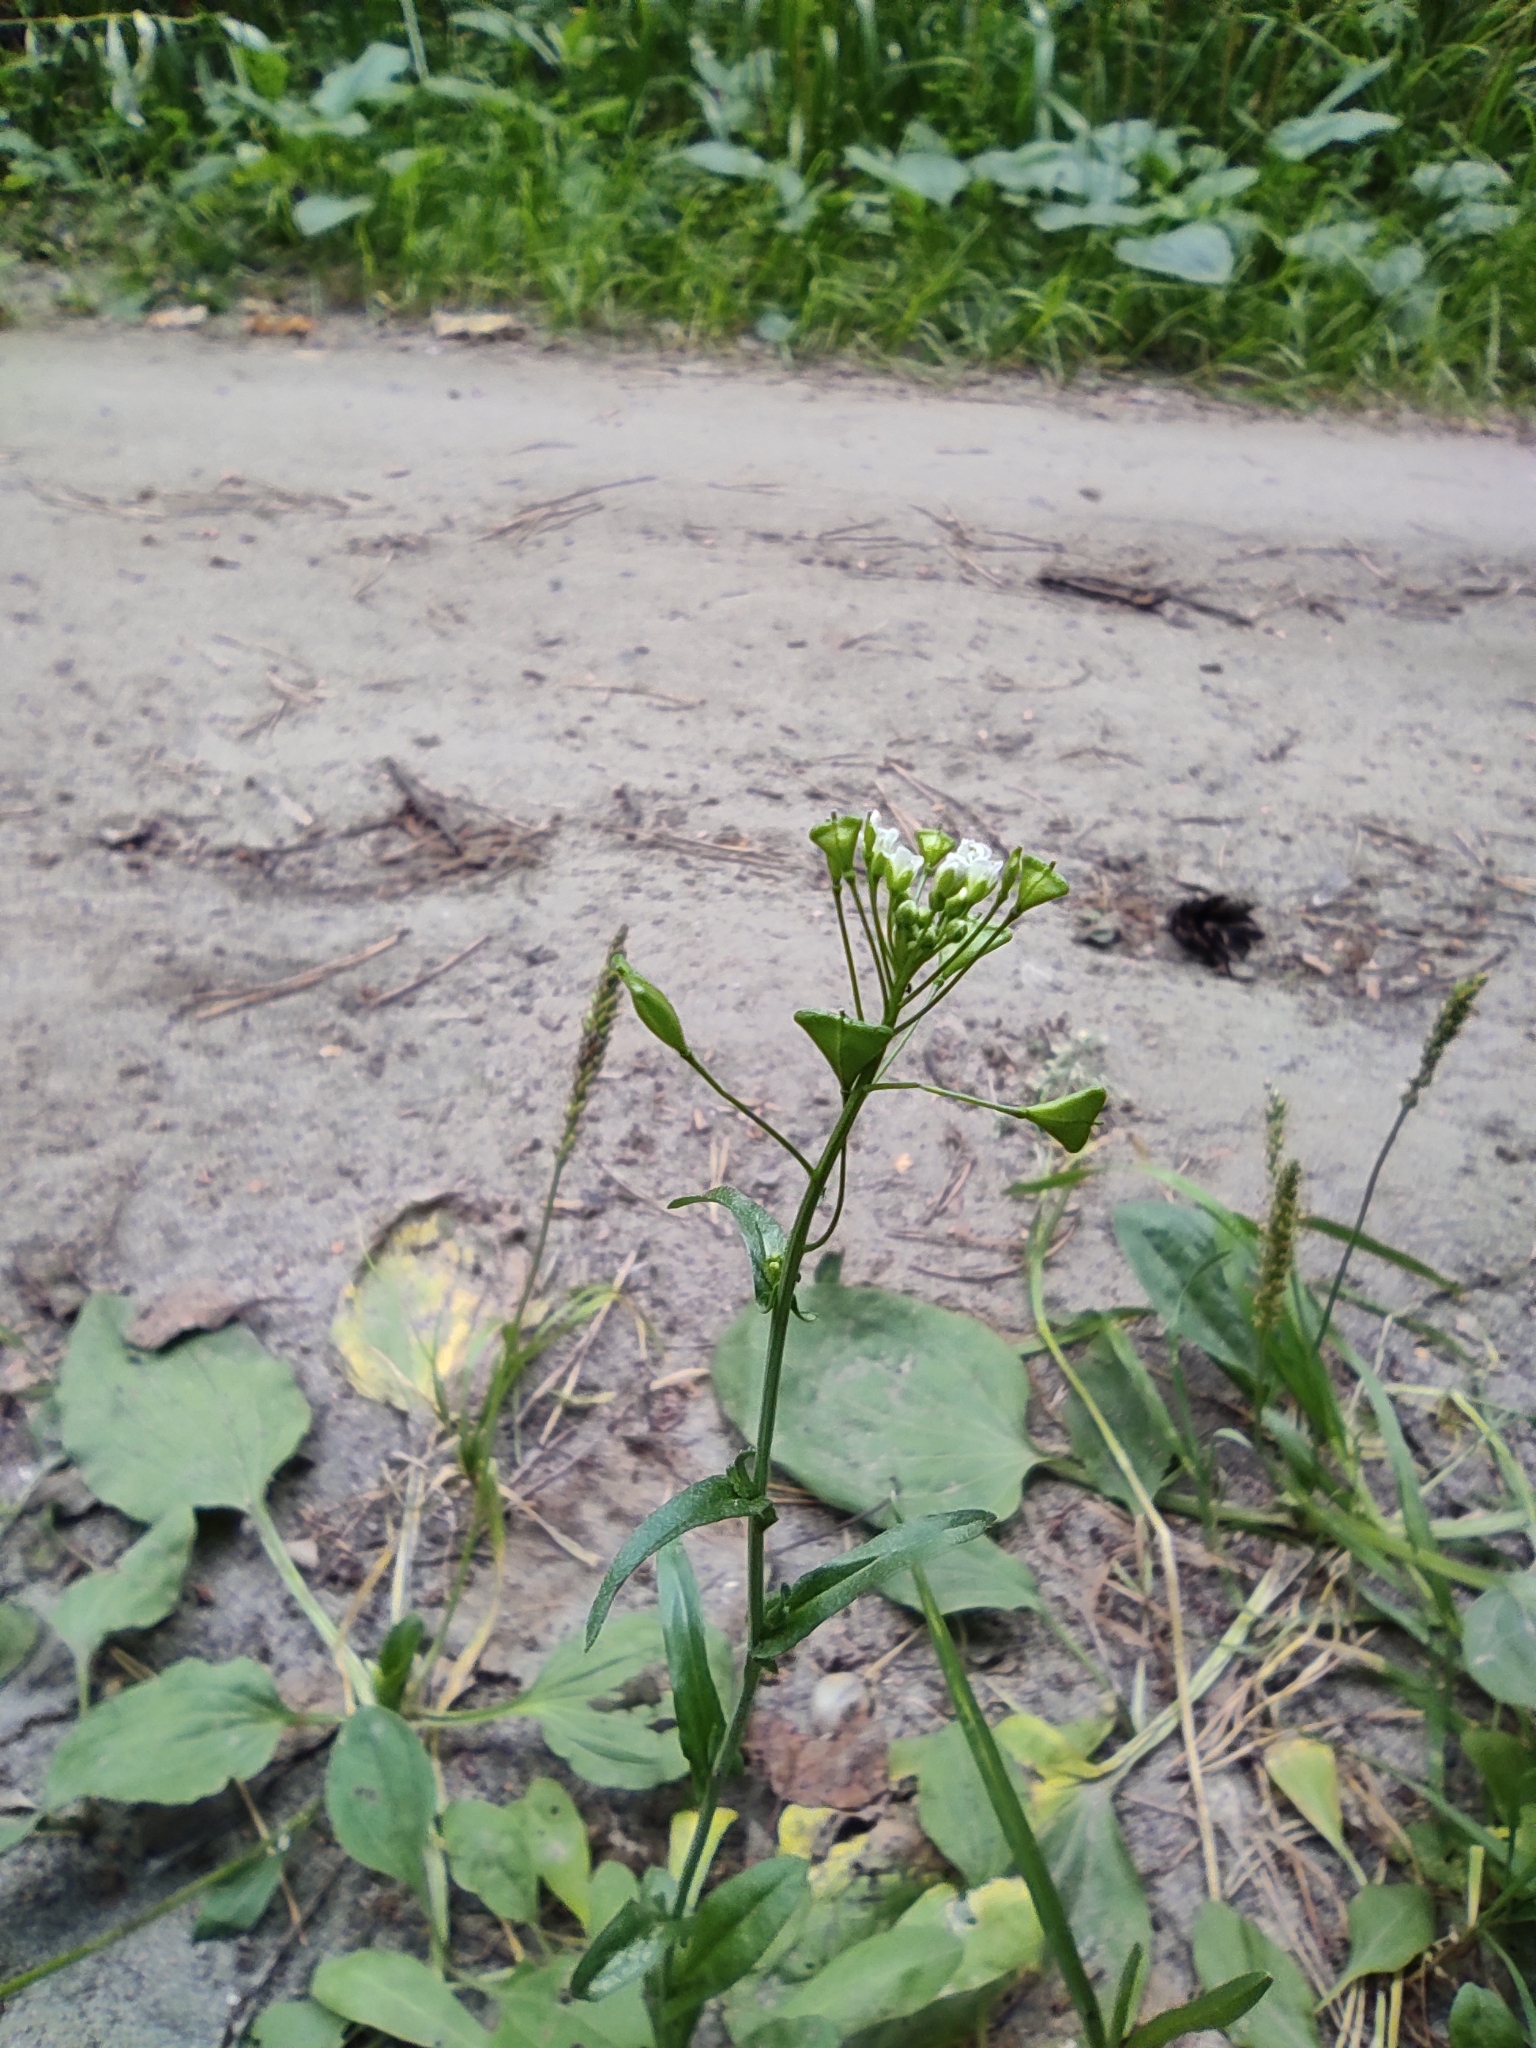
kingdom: Plantae
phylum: Tracheophyta
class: Magnoliopsida
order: Brassicales
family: Brassicaceae
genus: Capsella
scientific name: Capsella bursa-pastoris
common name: Shepherd's purse
